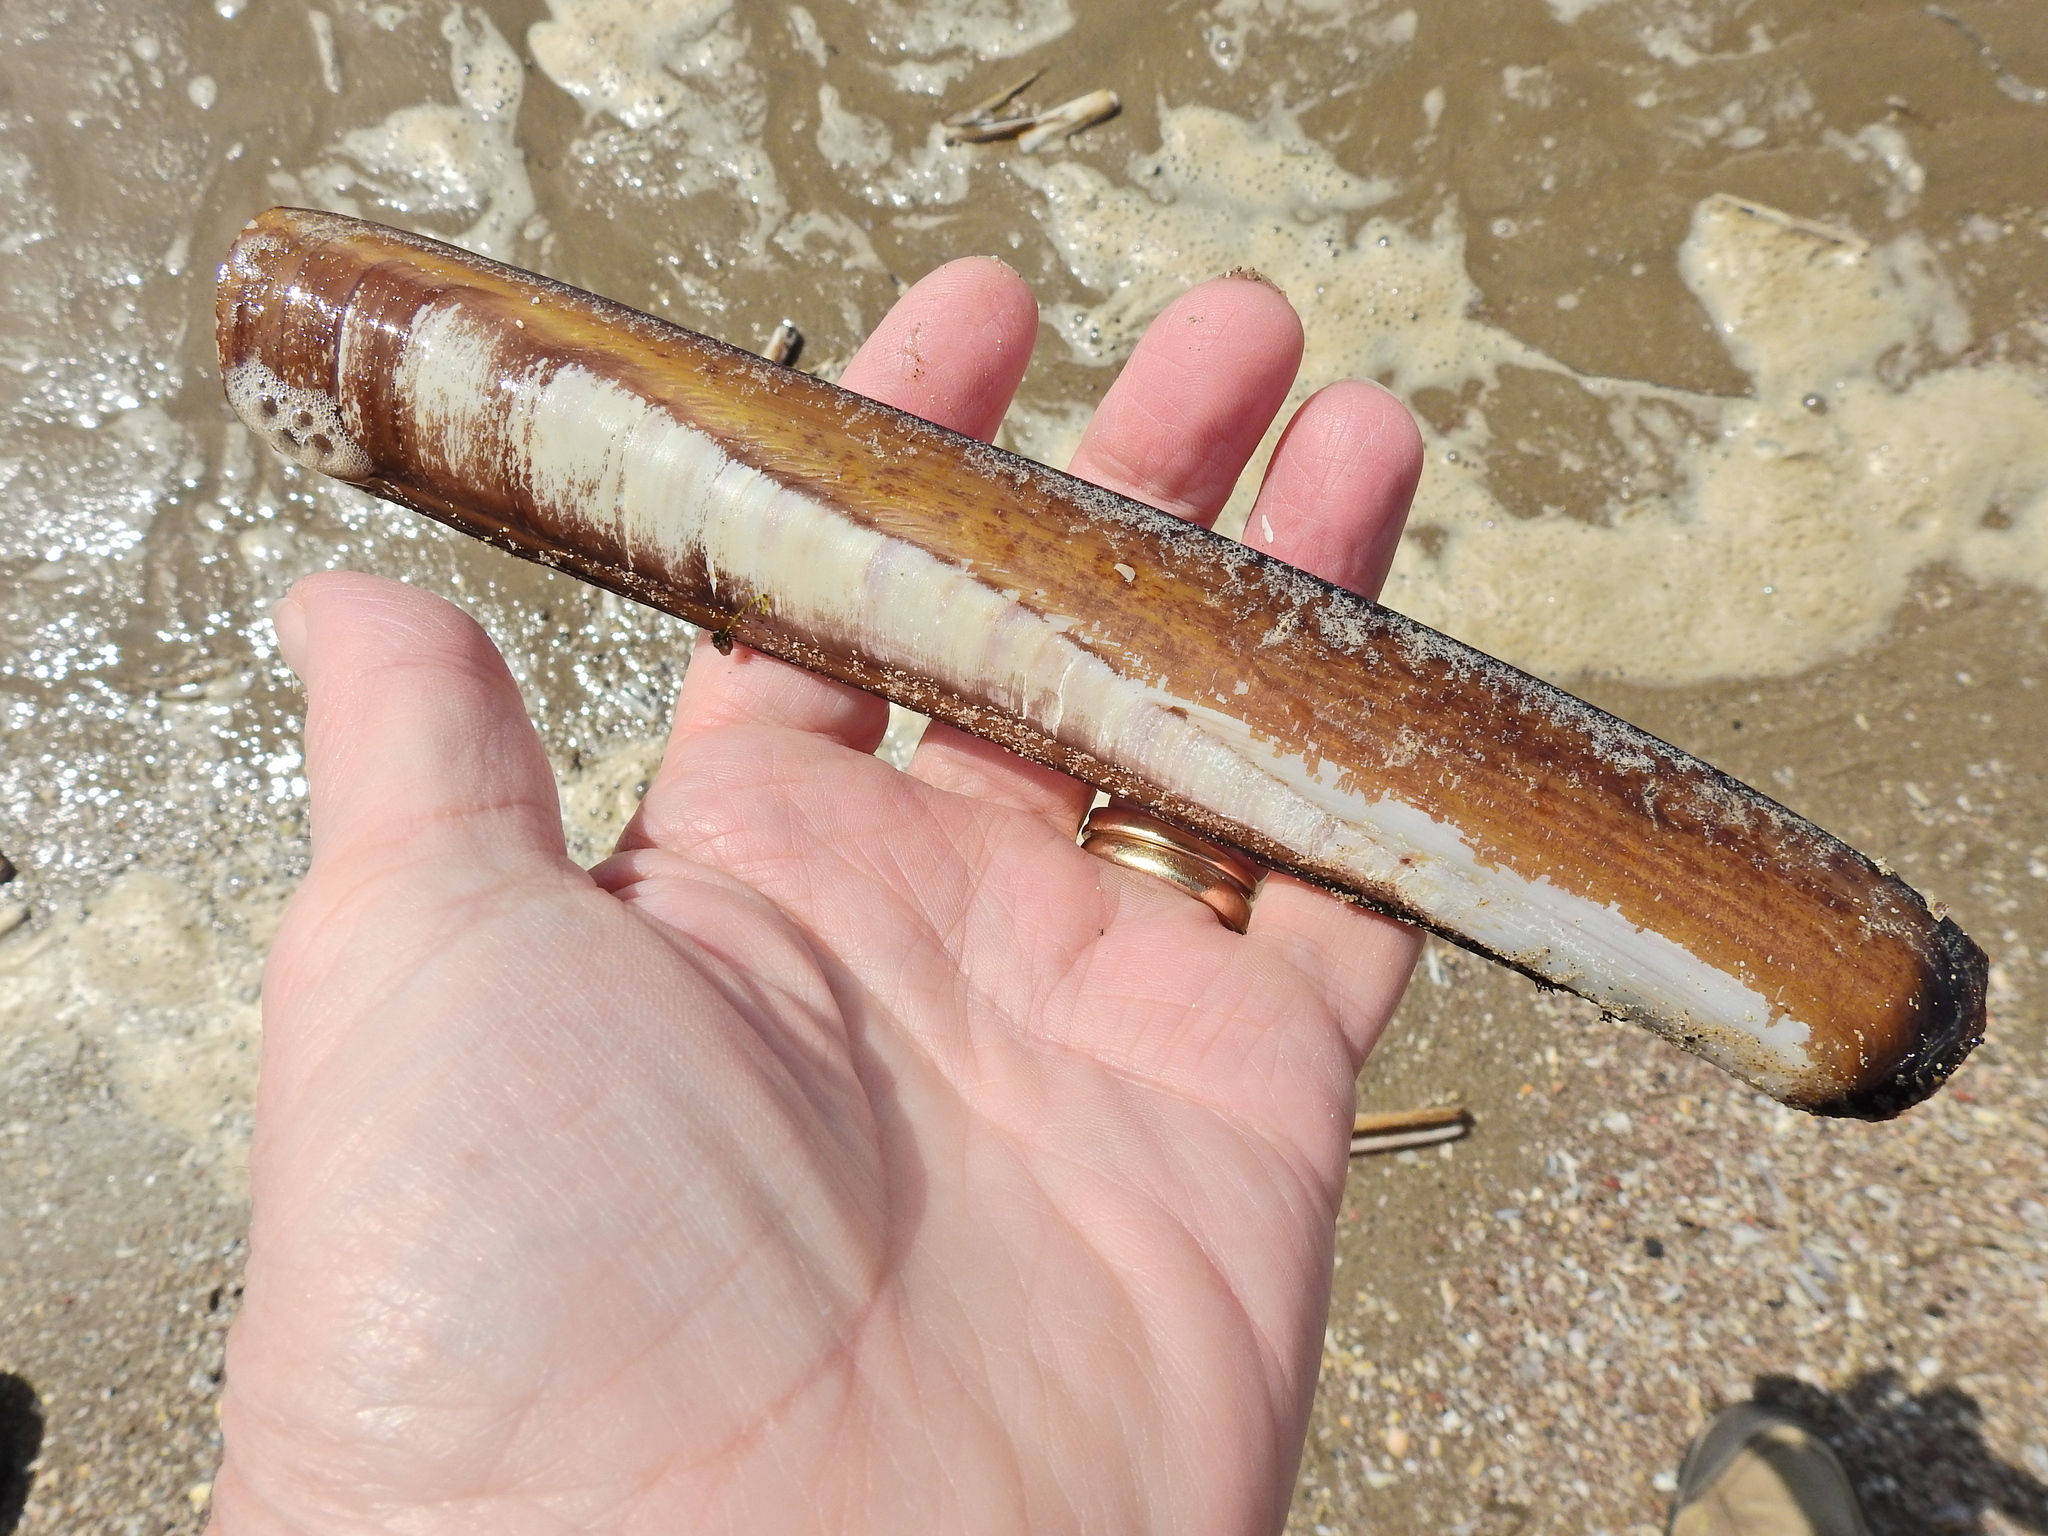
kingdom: Animalia
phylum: Mollusca
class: Bivalvia
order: Adapedonta
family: Pharidae
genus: Ensis
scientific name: Ensis siliqua
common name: Pod razor shell
